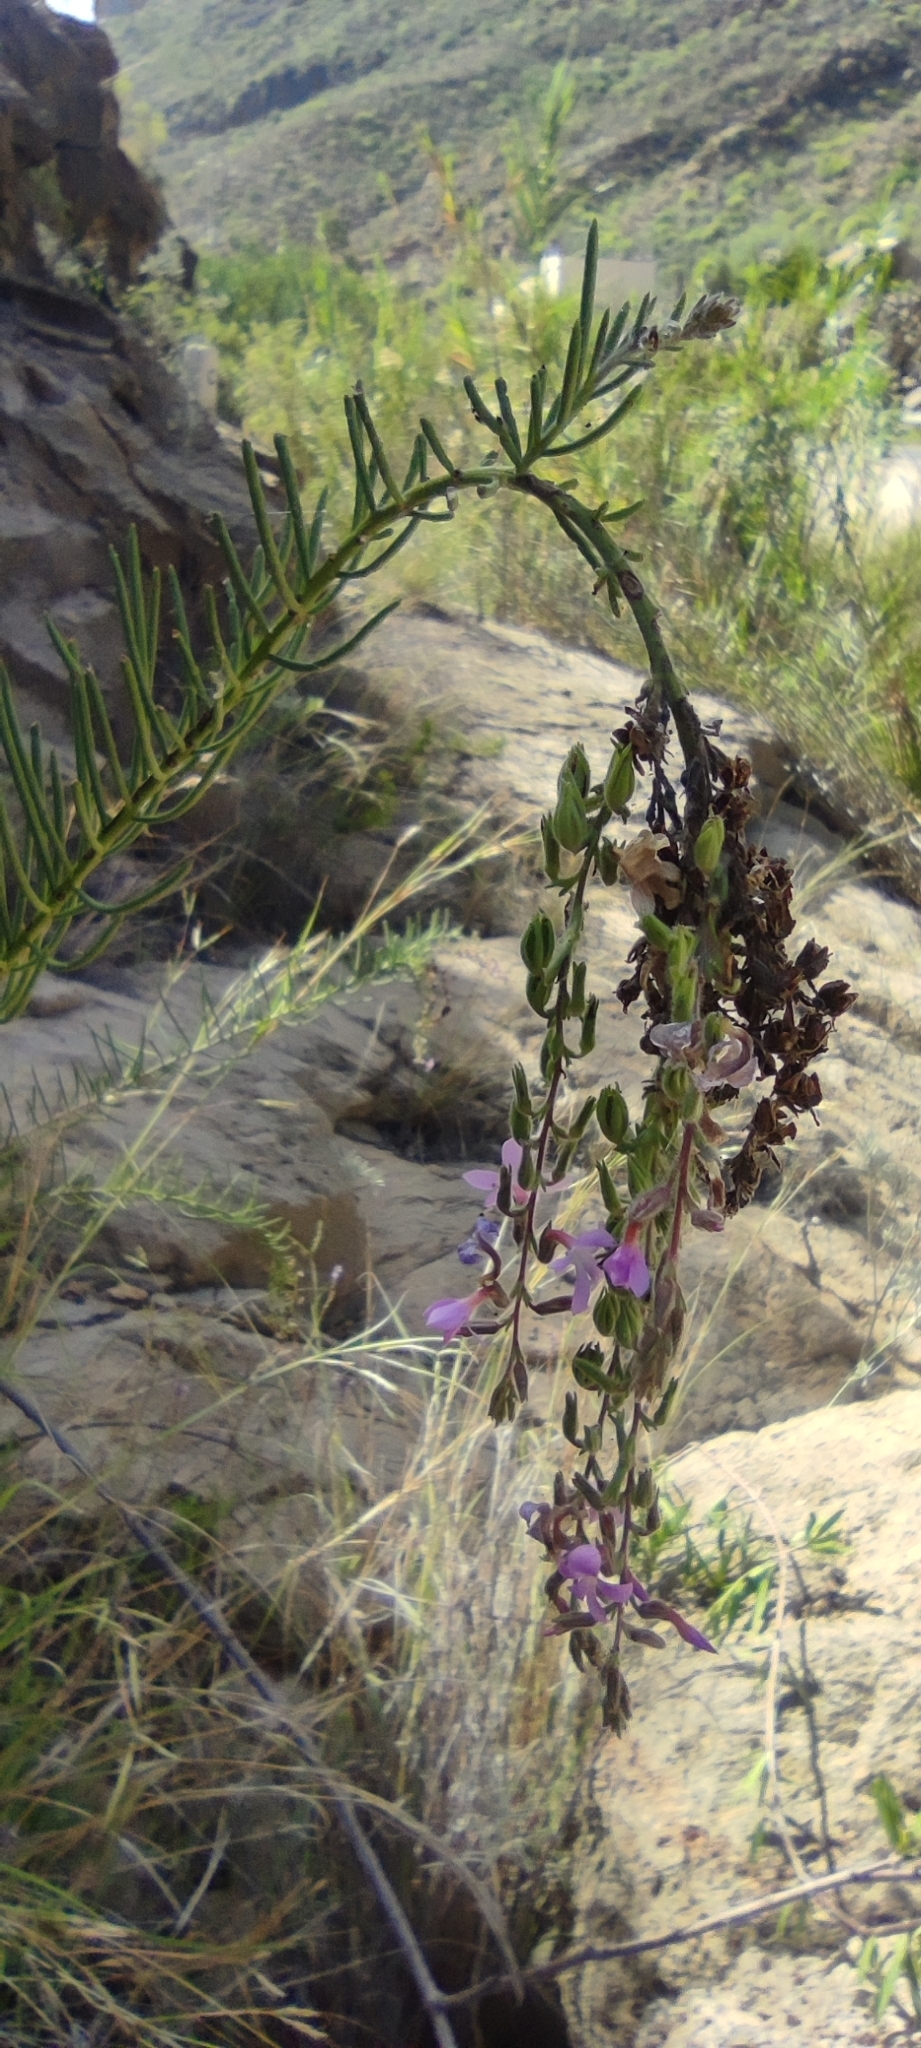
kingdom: Plantae
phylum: Tracheophyta
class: Magnoliopsida
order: Lamiales
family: Plantaginaceae
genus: Campylanthus
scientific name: Campylanthus salsoloides
